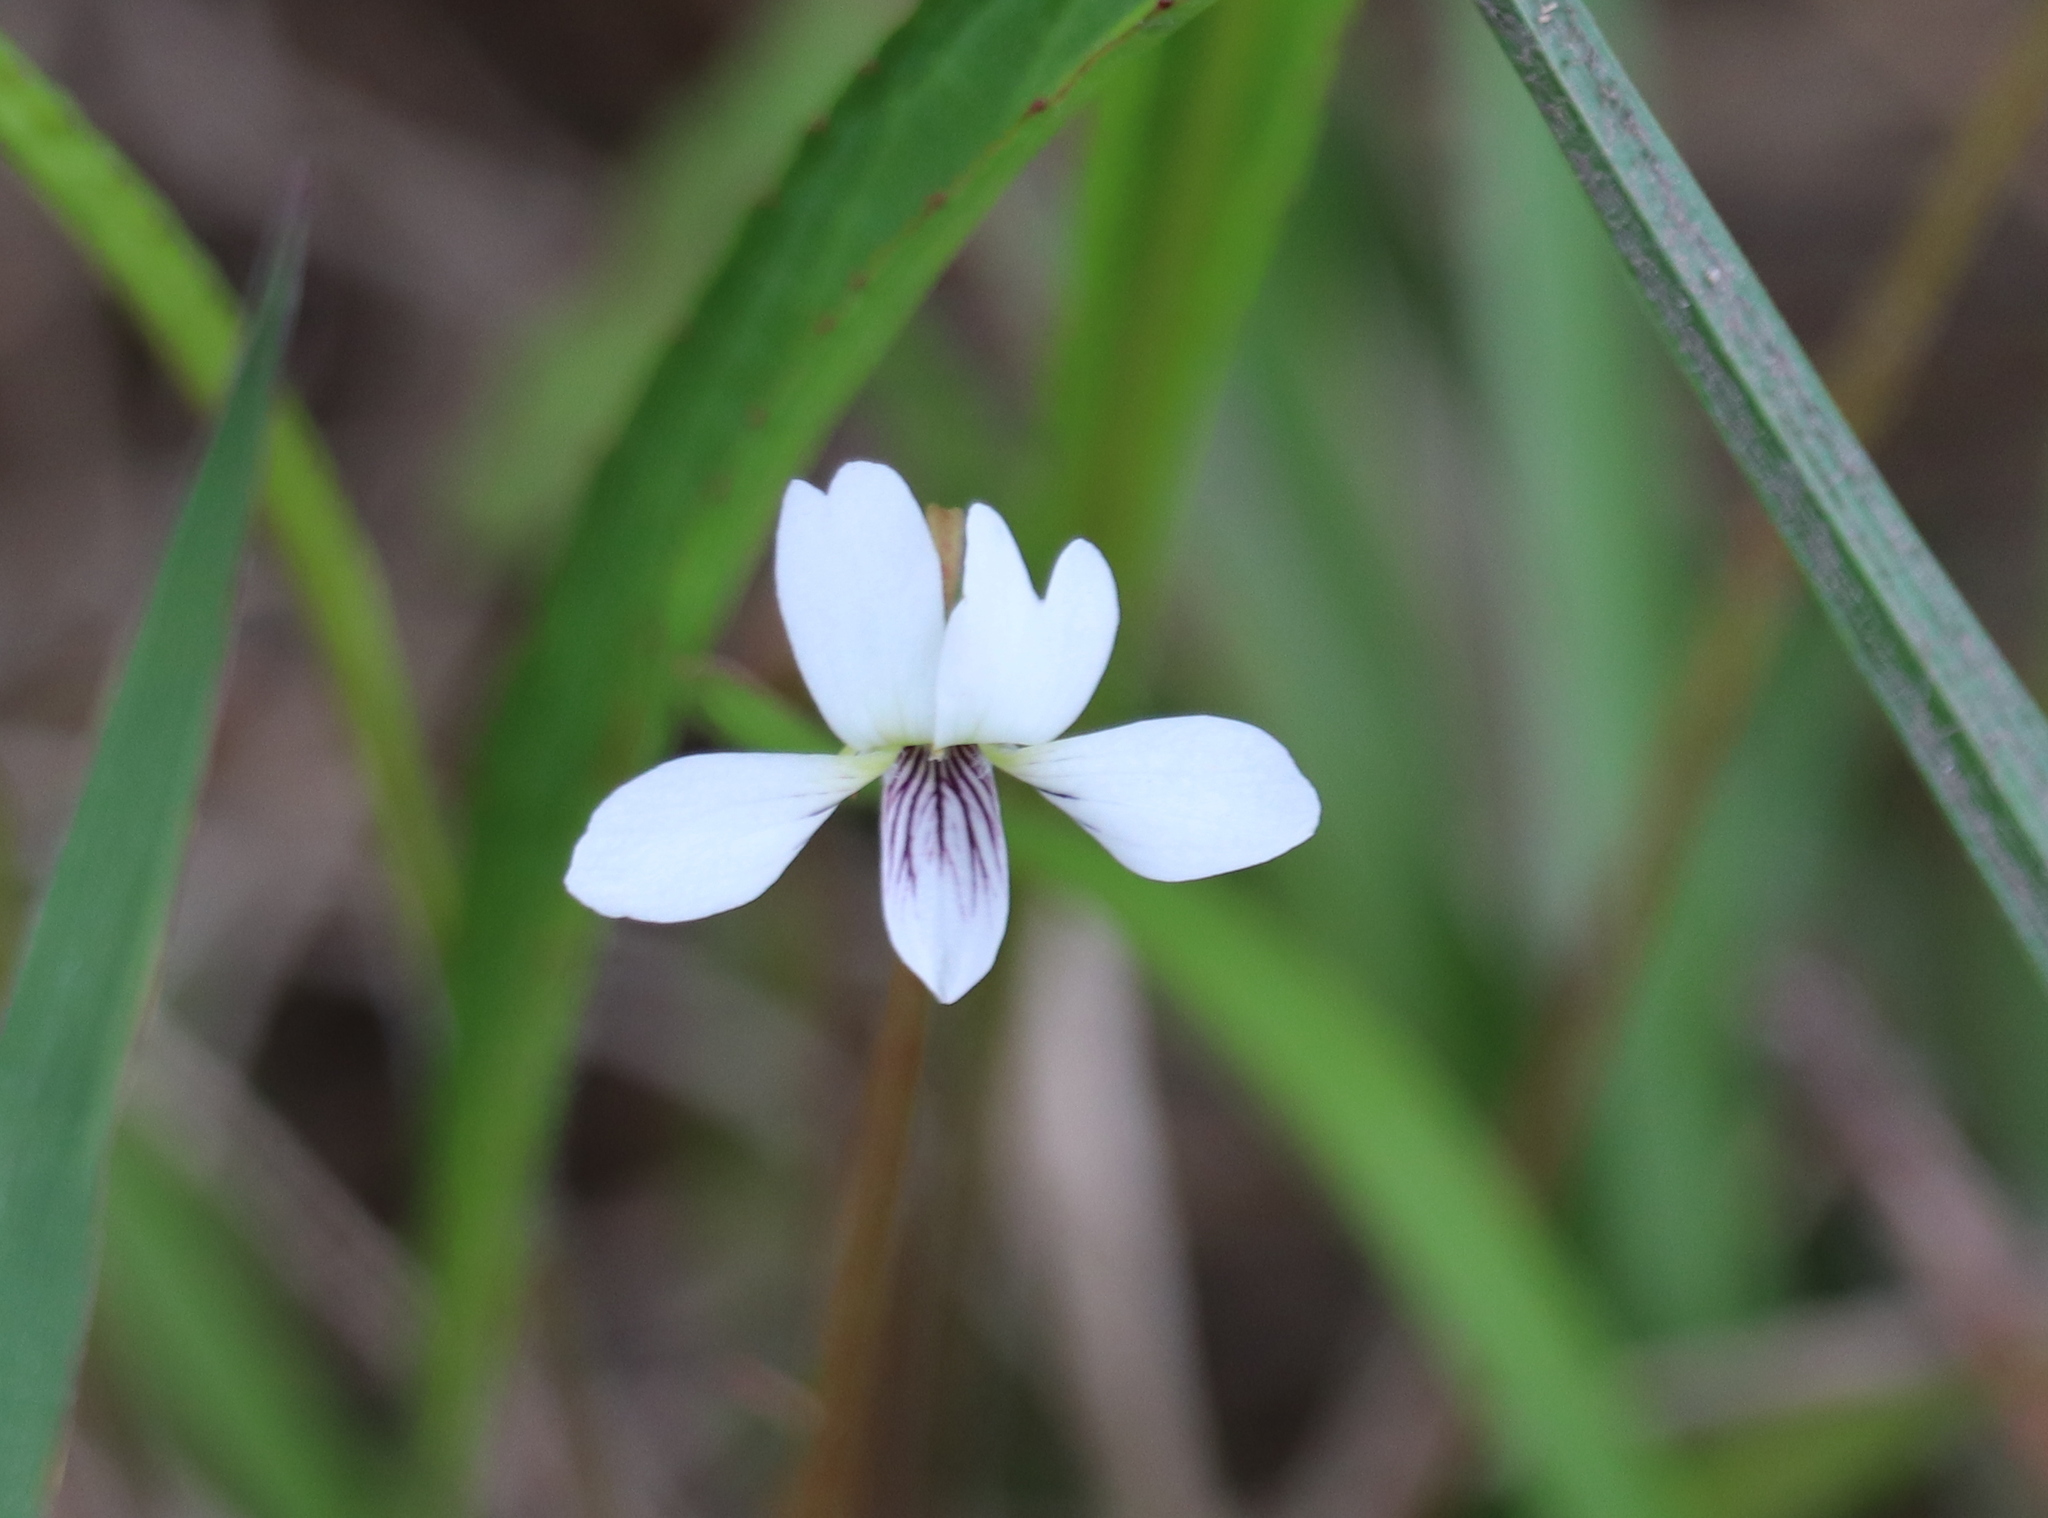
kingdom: Plantae
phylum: Tracheophyta
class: Magnoliopsida
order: Malpighiales
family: Violaceae
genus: Viola
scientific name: Viola vittata
